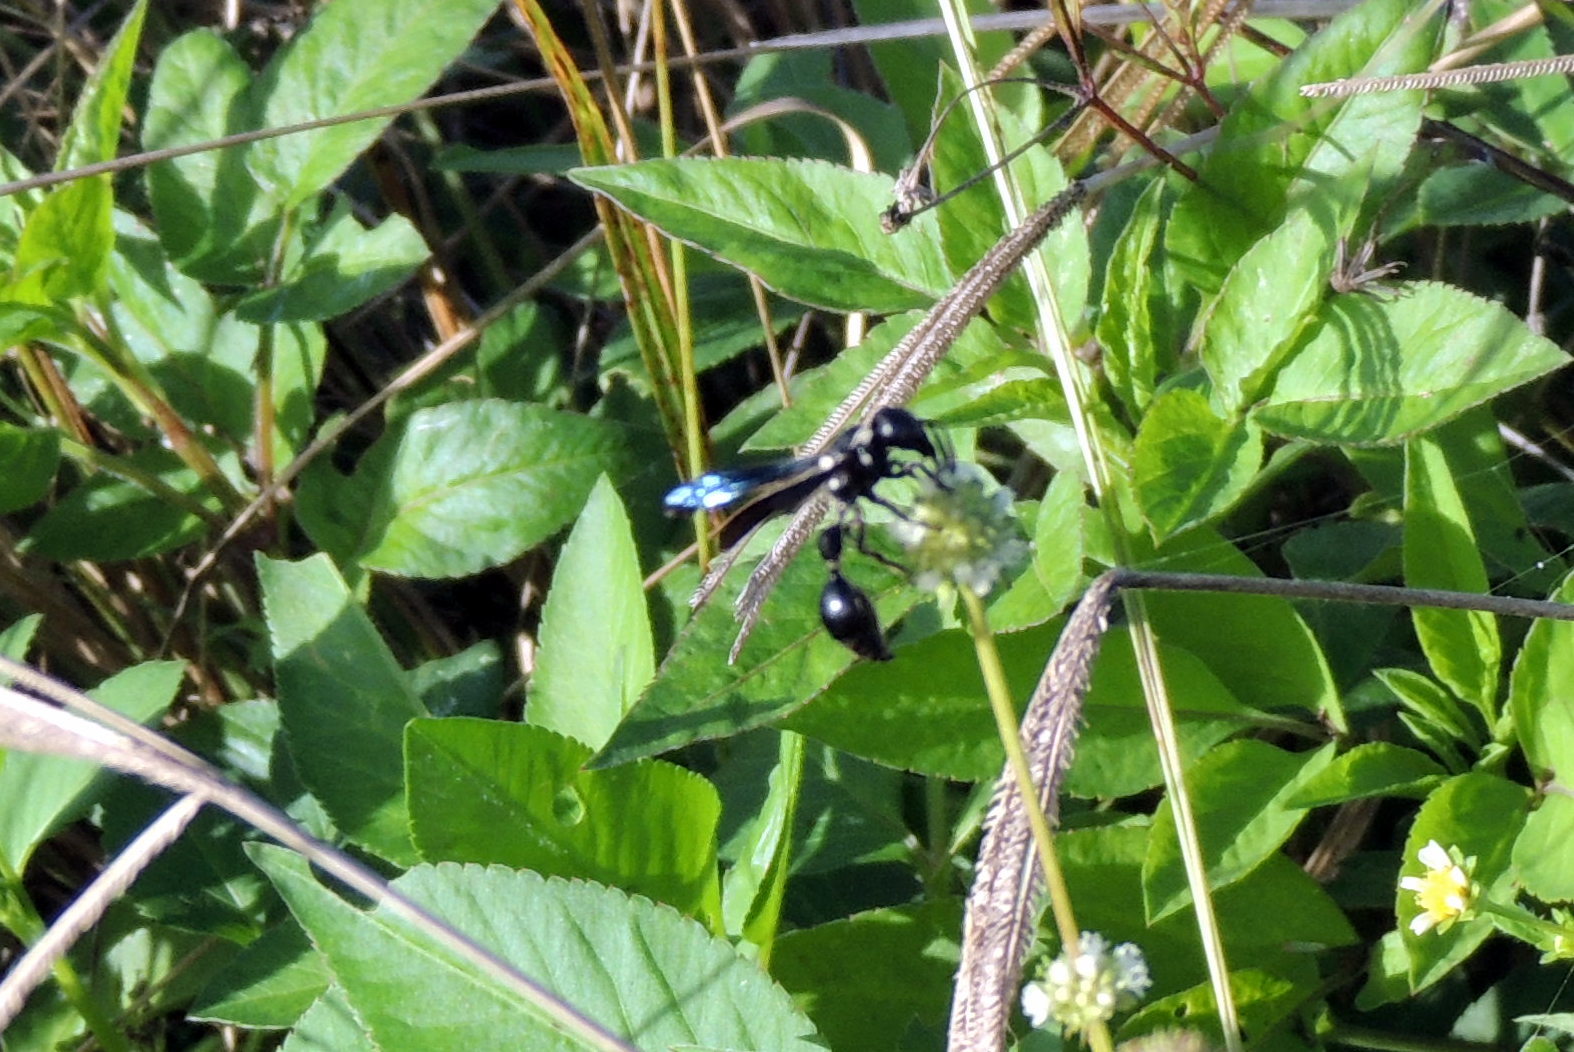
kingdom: Animalia
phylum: Arthropoda
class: Insecta
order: Hymenoptera
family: Eumenidae
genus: Zethus
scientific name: Zethus spinipes
